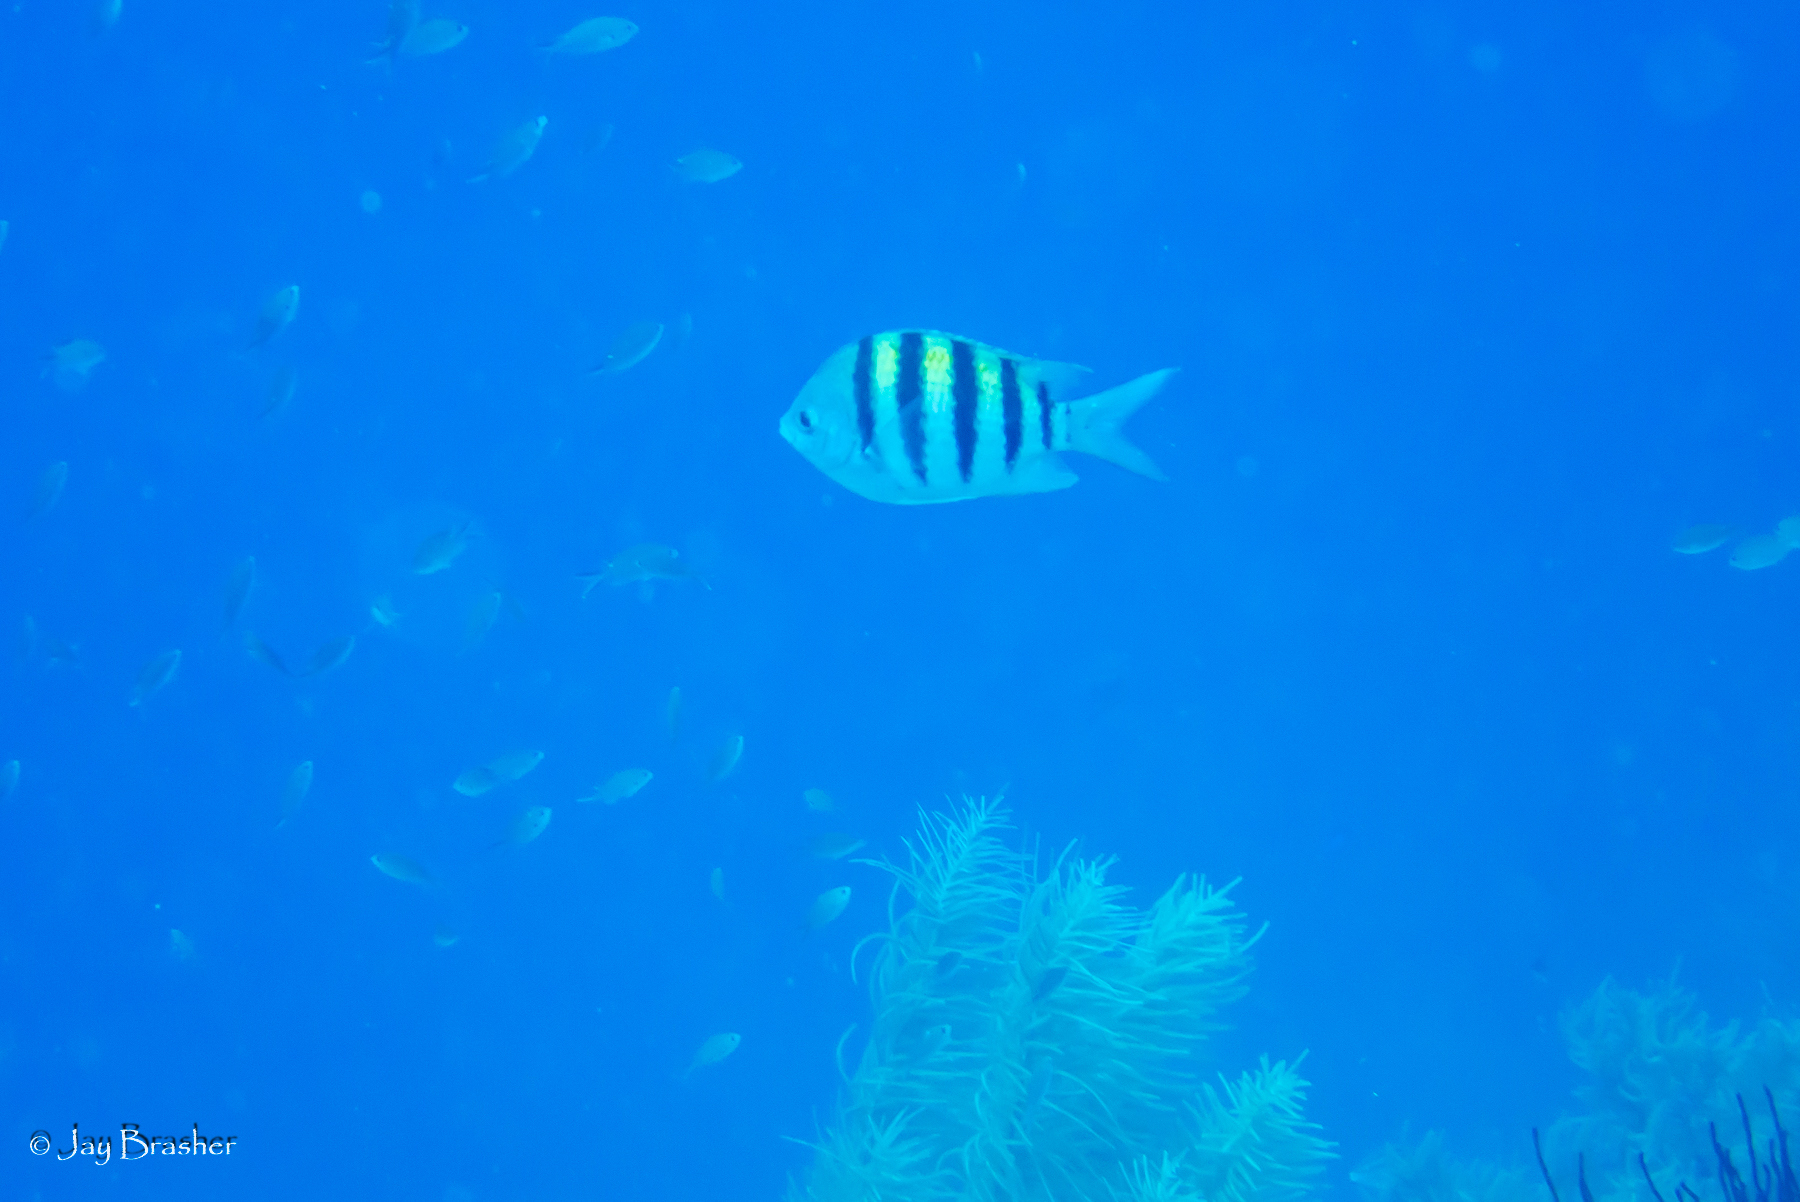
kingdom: Animalia
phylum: Chordata
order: Perciformes
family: Pomacentridae
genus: Abudefduf
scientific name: Abudefduf saxatilis
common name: Sergeant major
